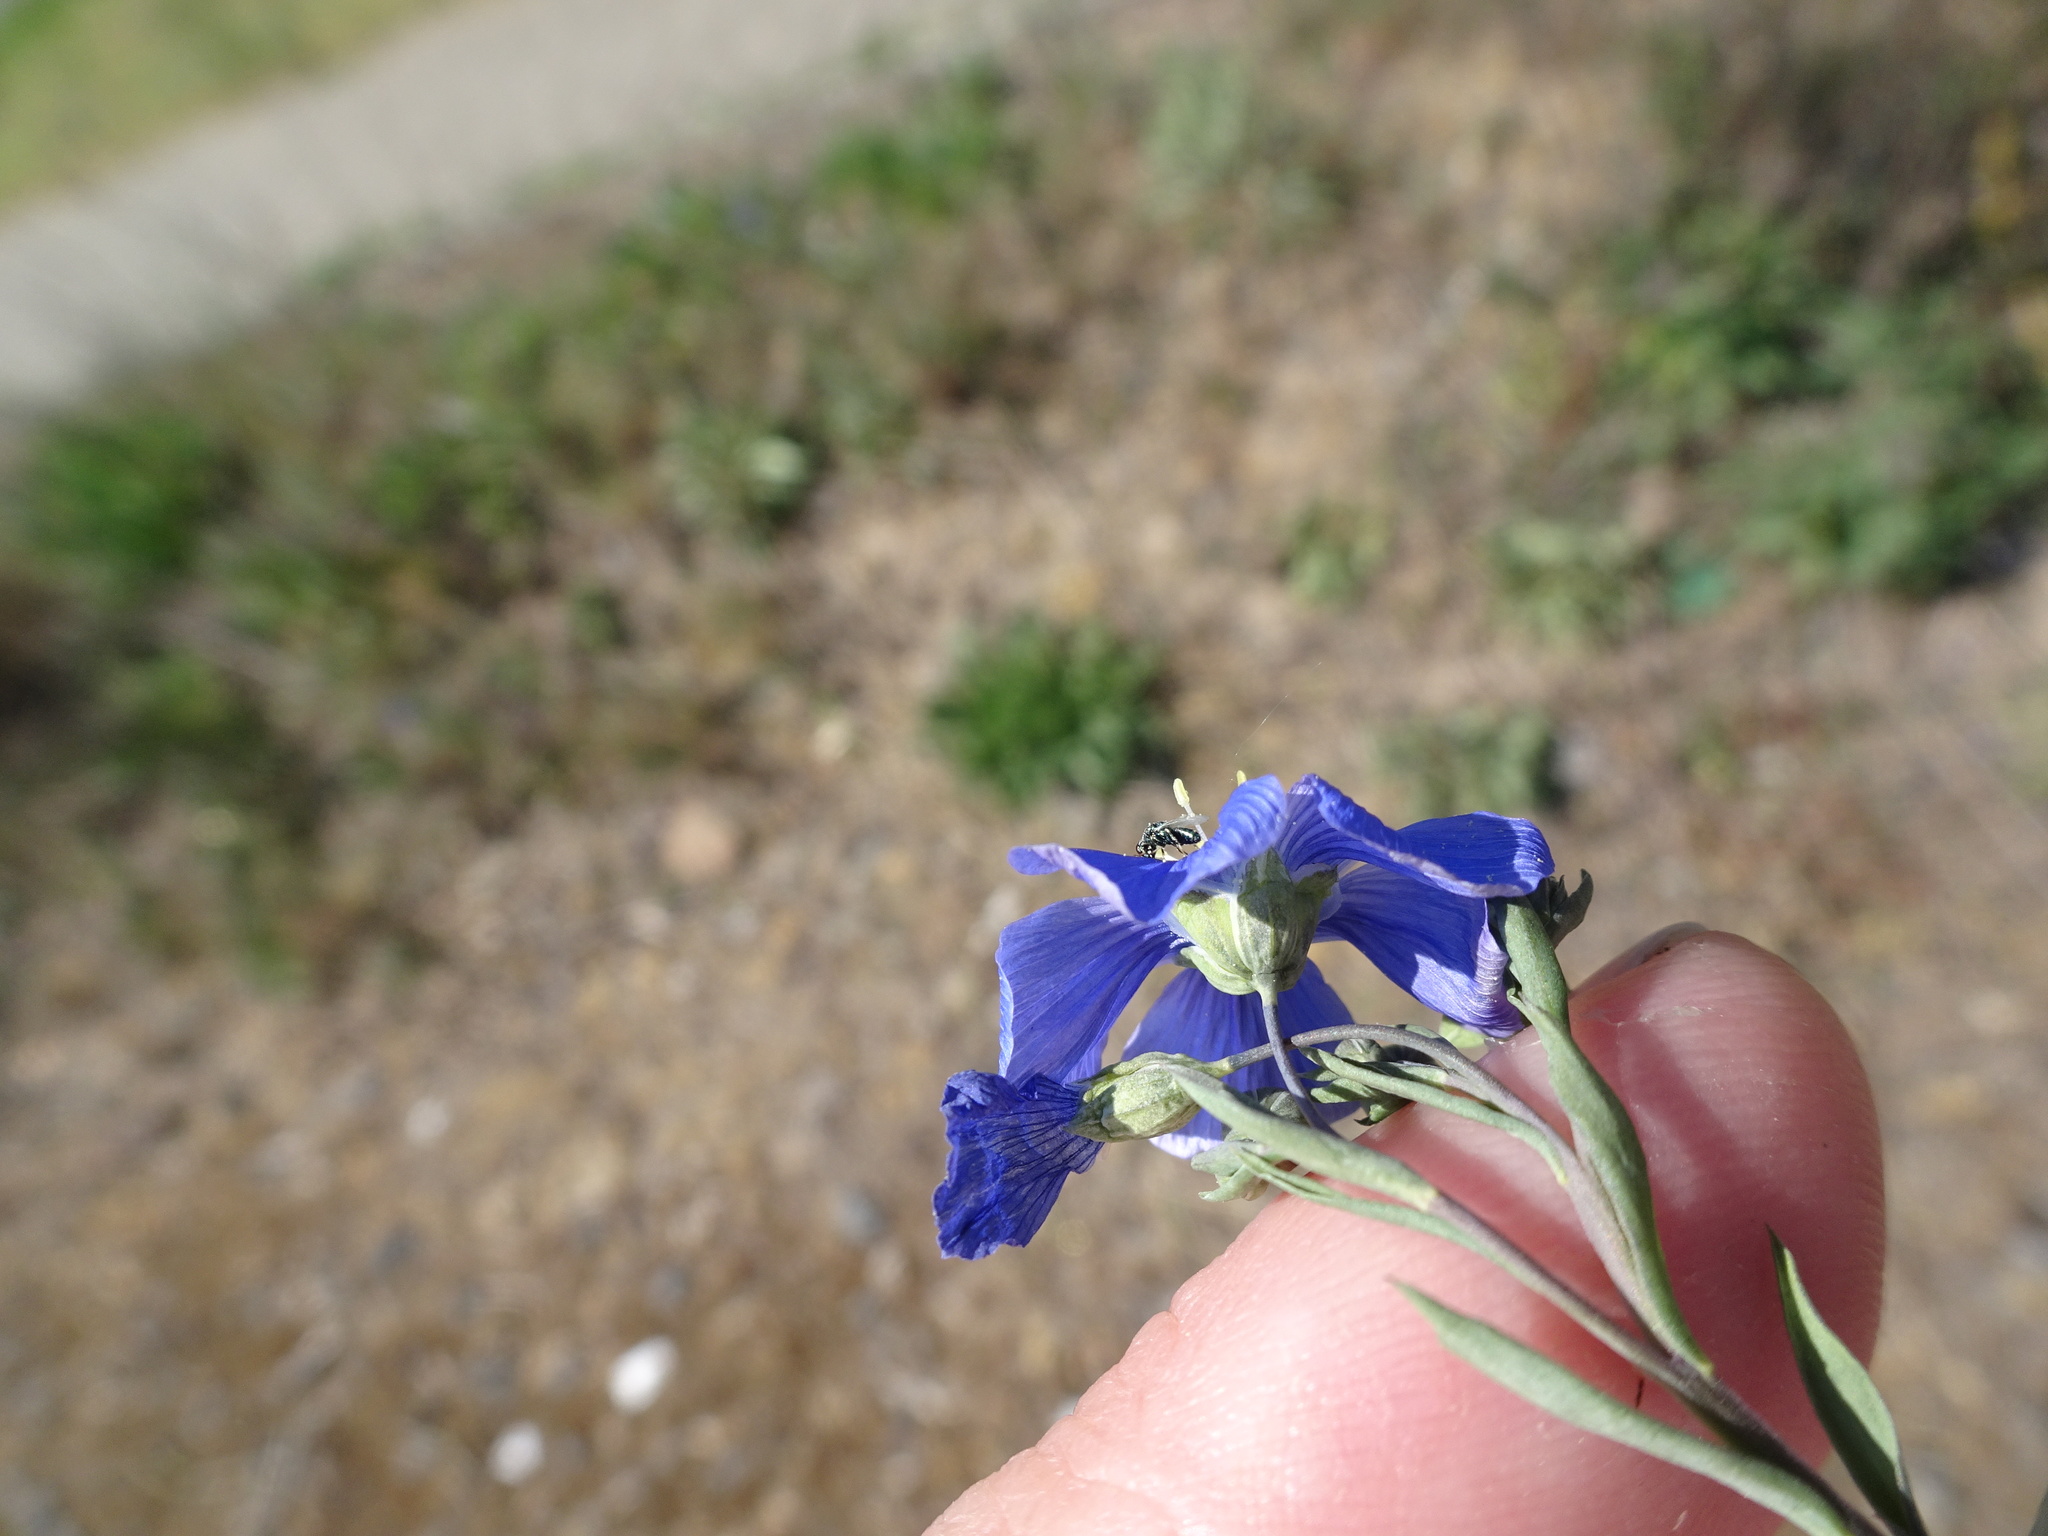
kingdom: Plantae
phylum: Tracheophyta
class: Magnoliopsida
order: Malpighiales
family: Linaceae
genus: Linum
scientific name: Linum austriacum
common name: Austrian flax
